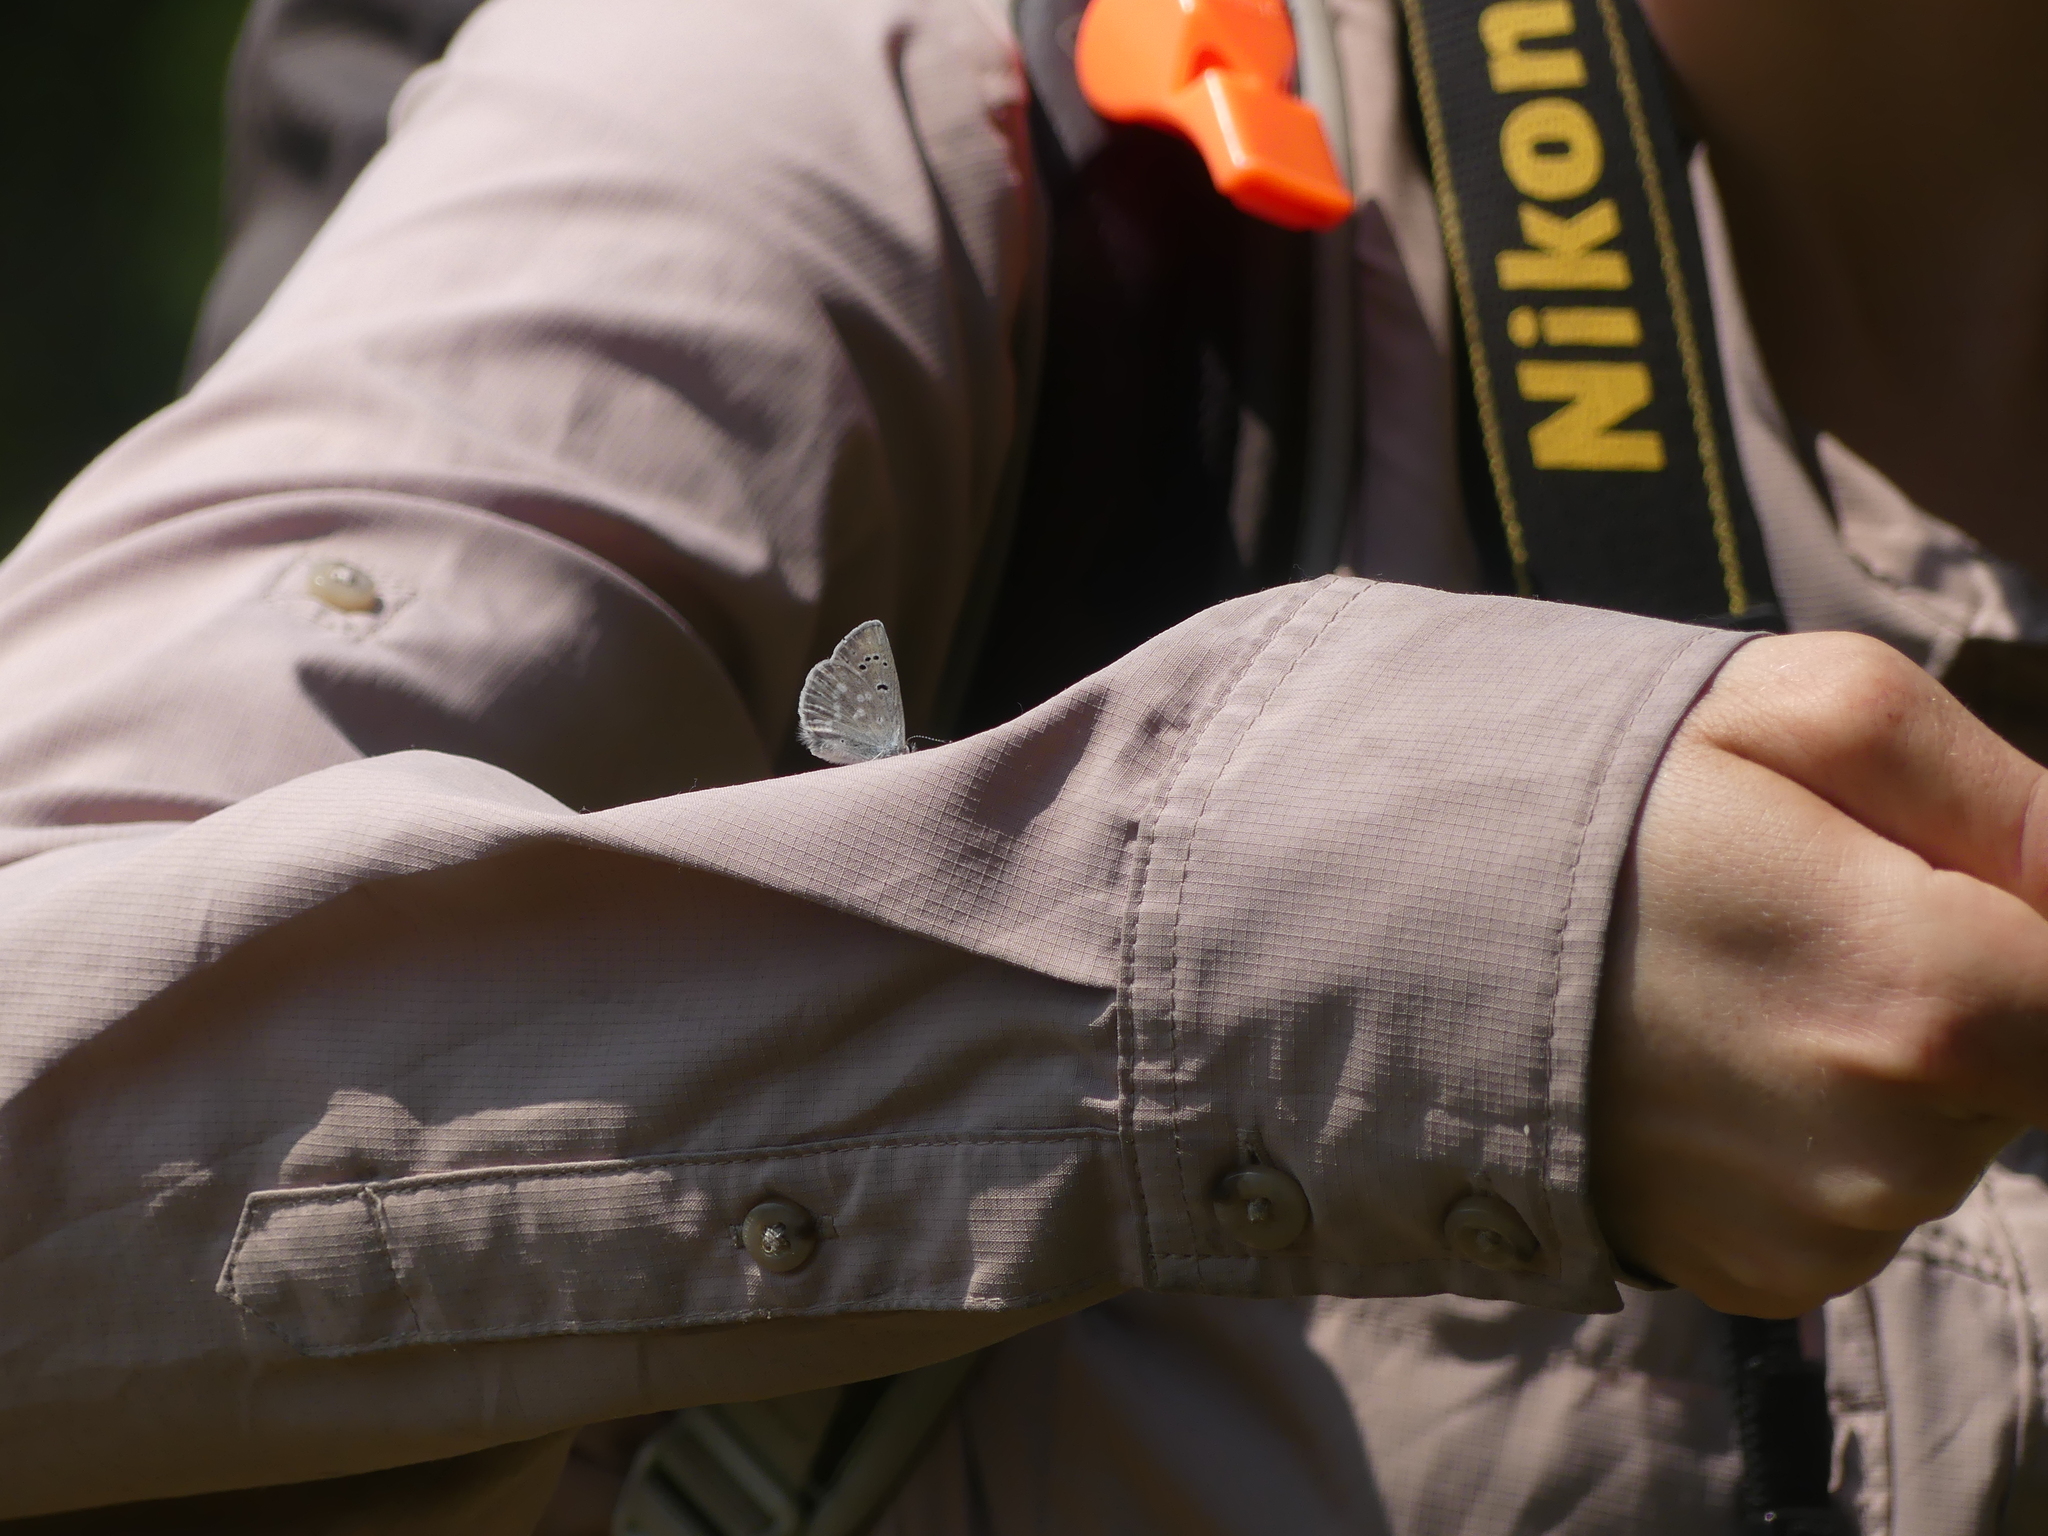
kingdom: Animalia
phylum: Arthropoda
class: Insecta
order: Lepidoptera
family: Lycaenidae
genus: Icaricia
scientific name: Icaricia icarioides
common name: Boisduval's blue
